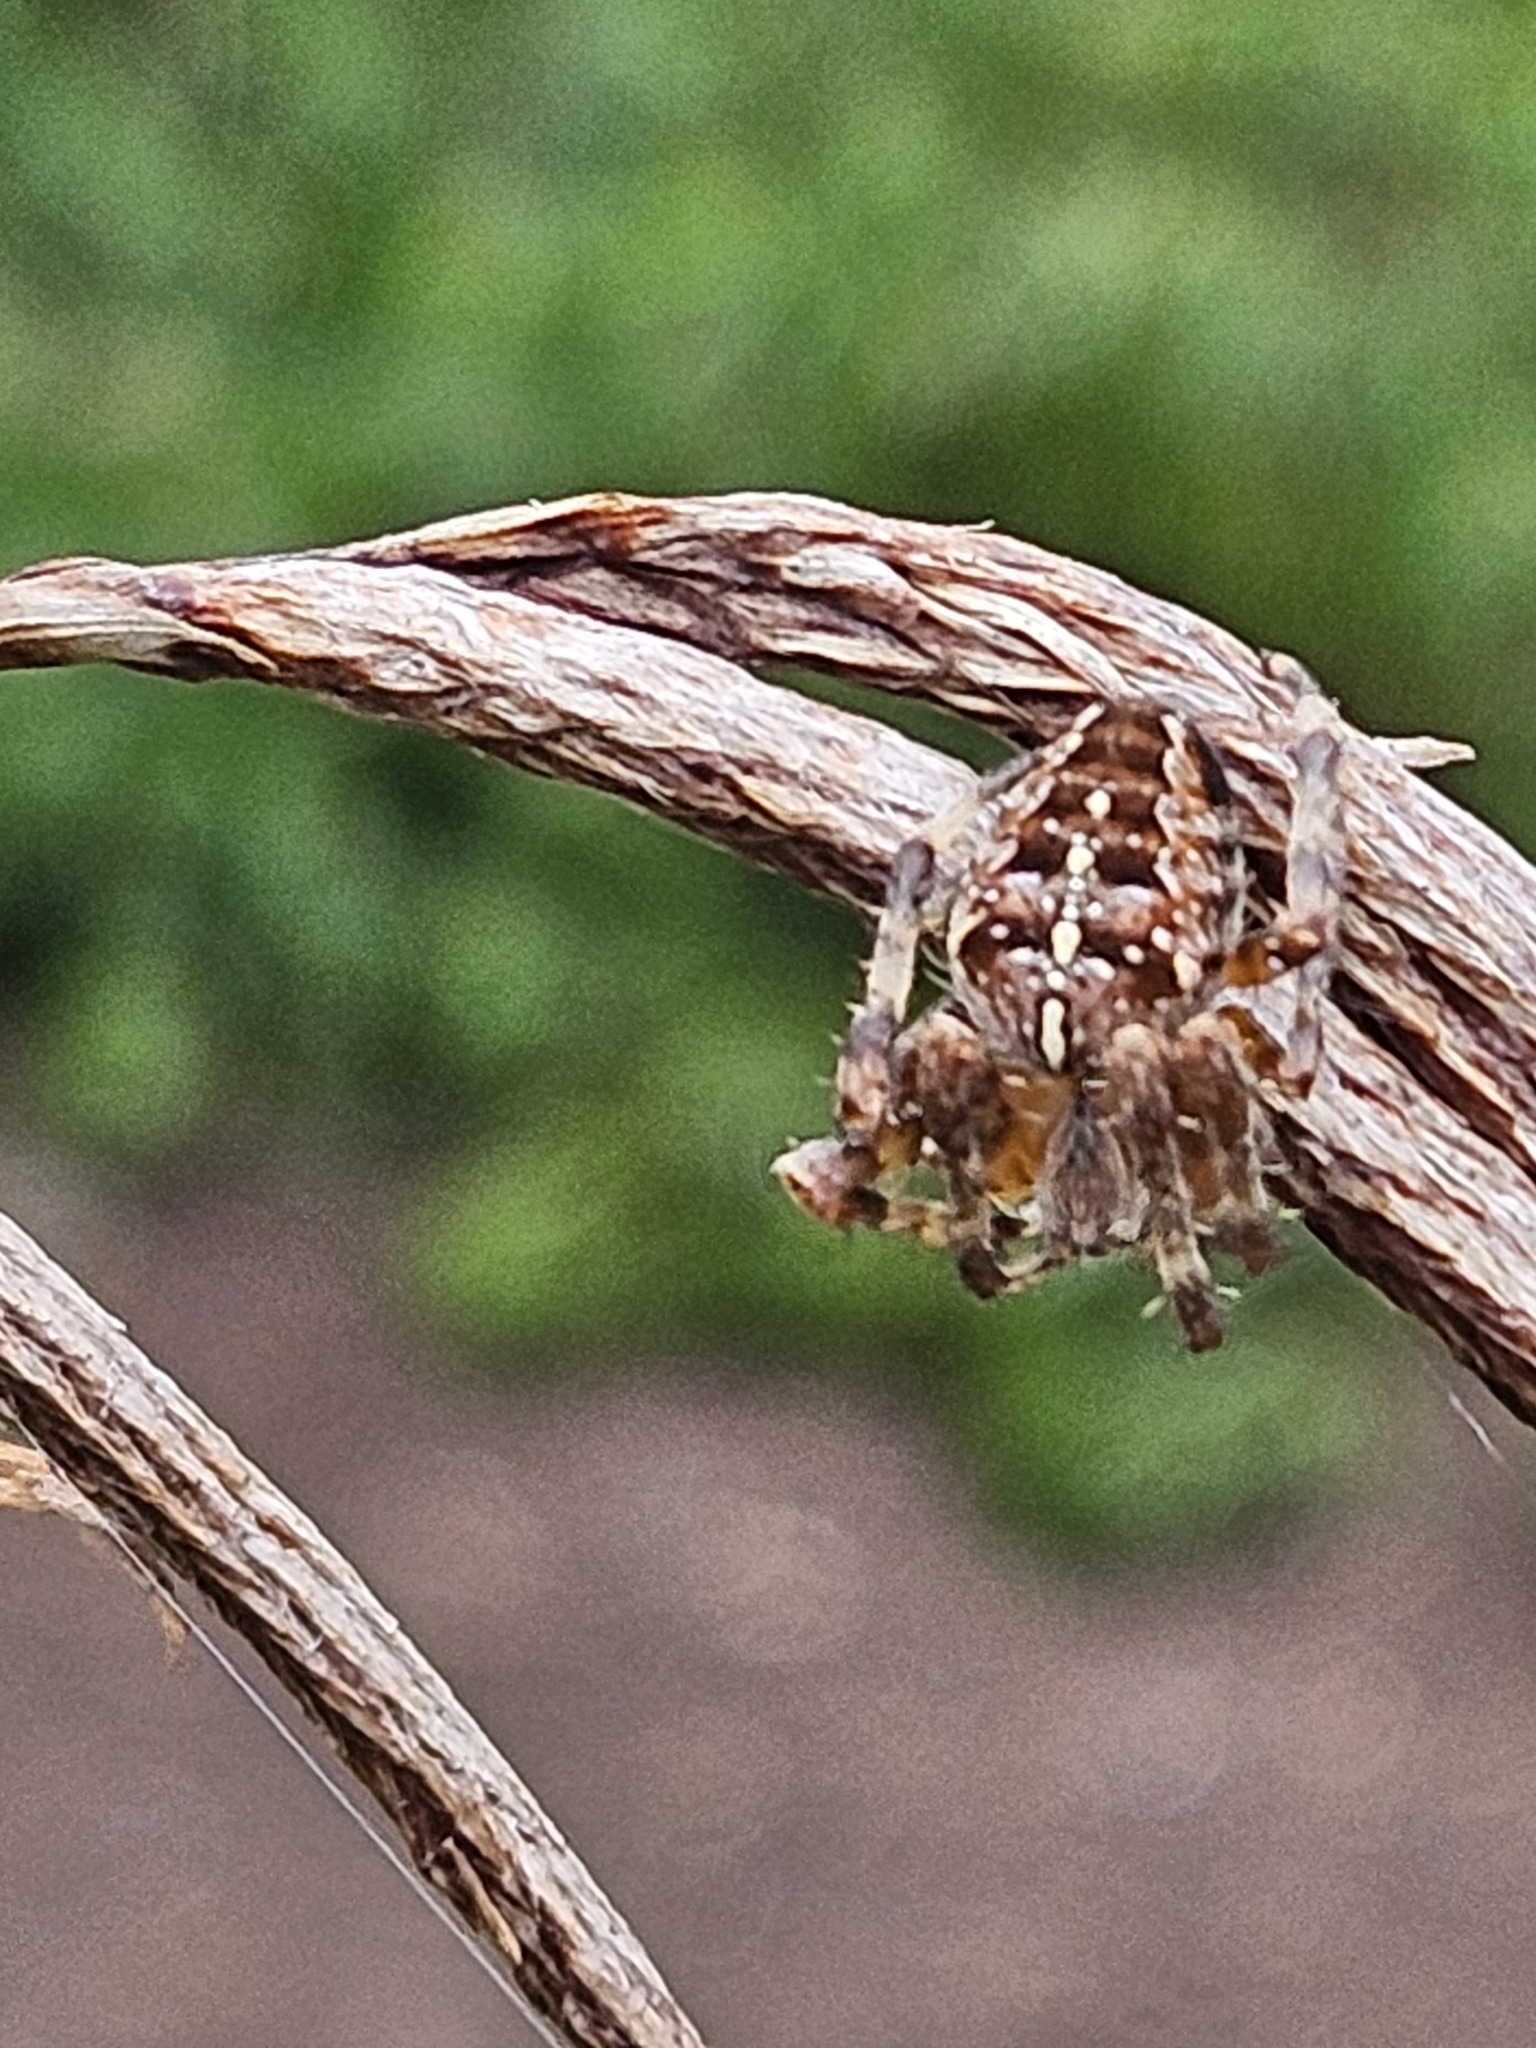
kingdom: Animalia
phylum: Arthropoda
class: Arachnida
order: Araneae
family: Araneidae
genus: Araneus
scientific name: Araneus diadematus
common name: Cross orbweaver
